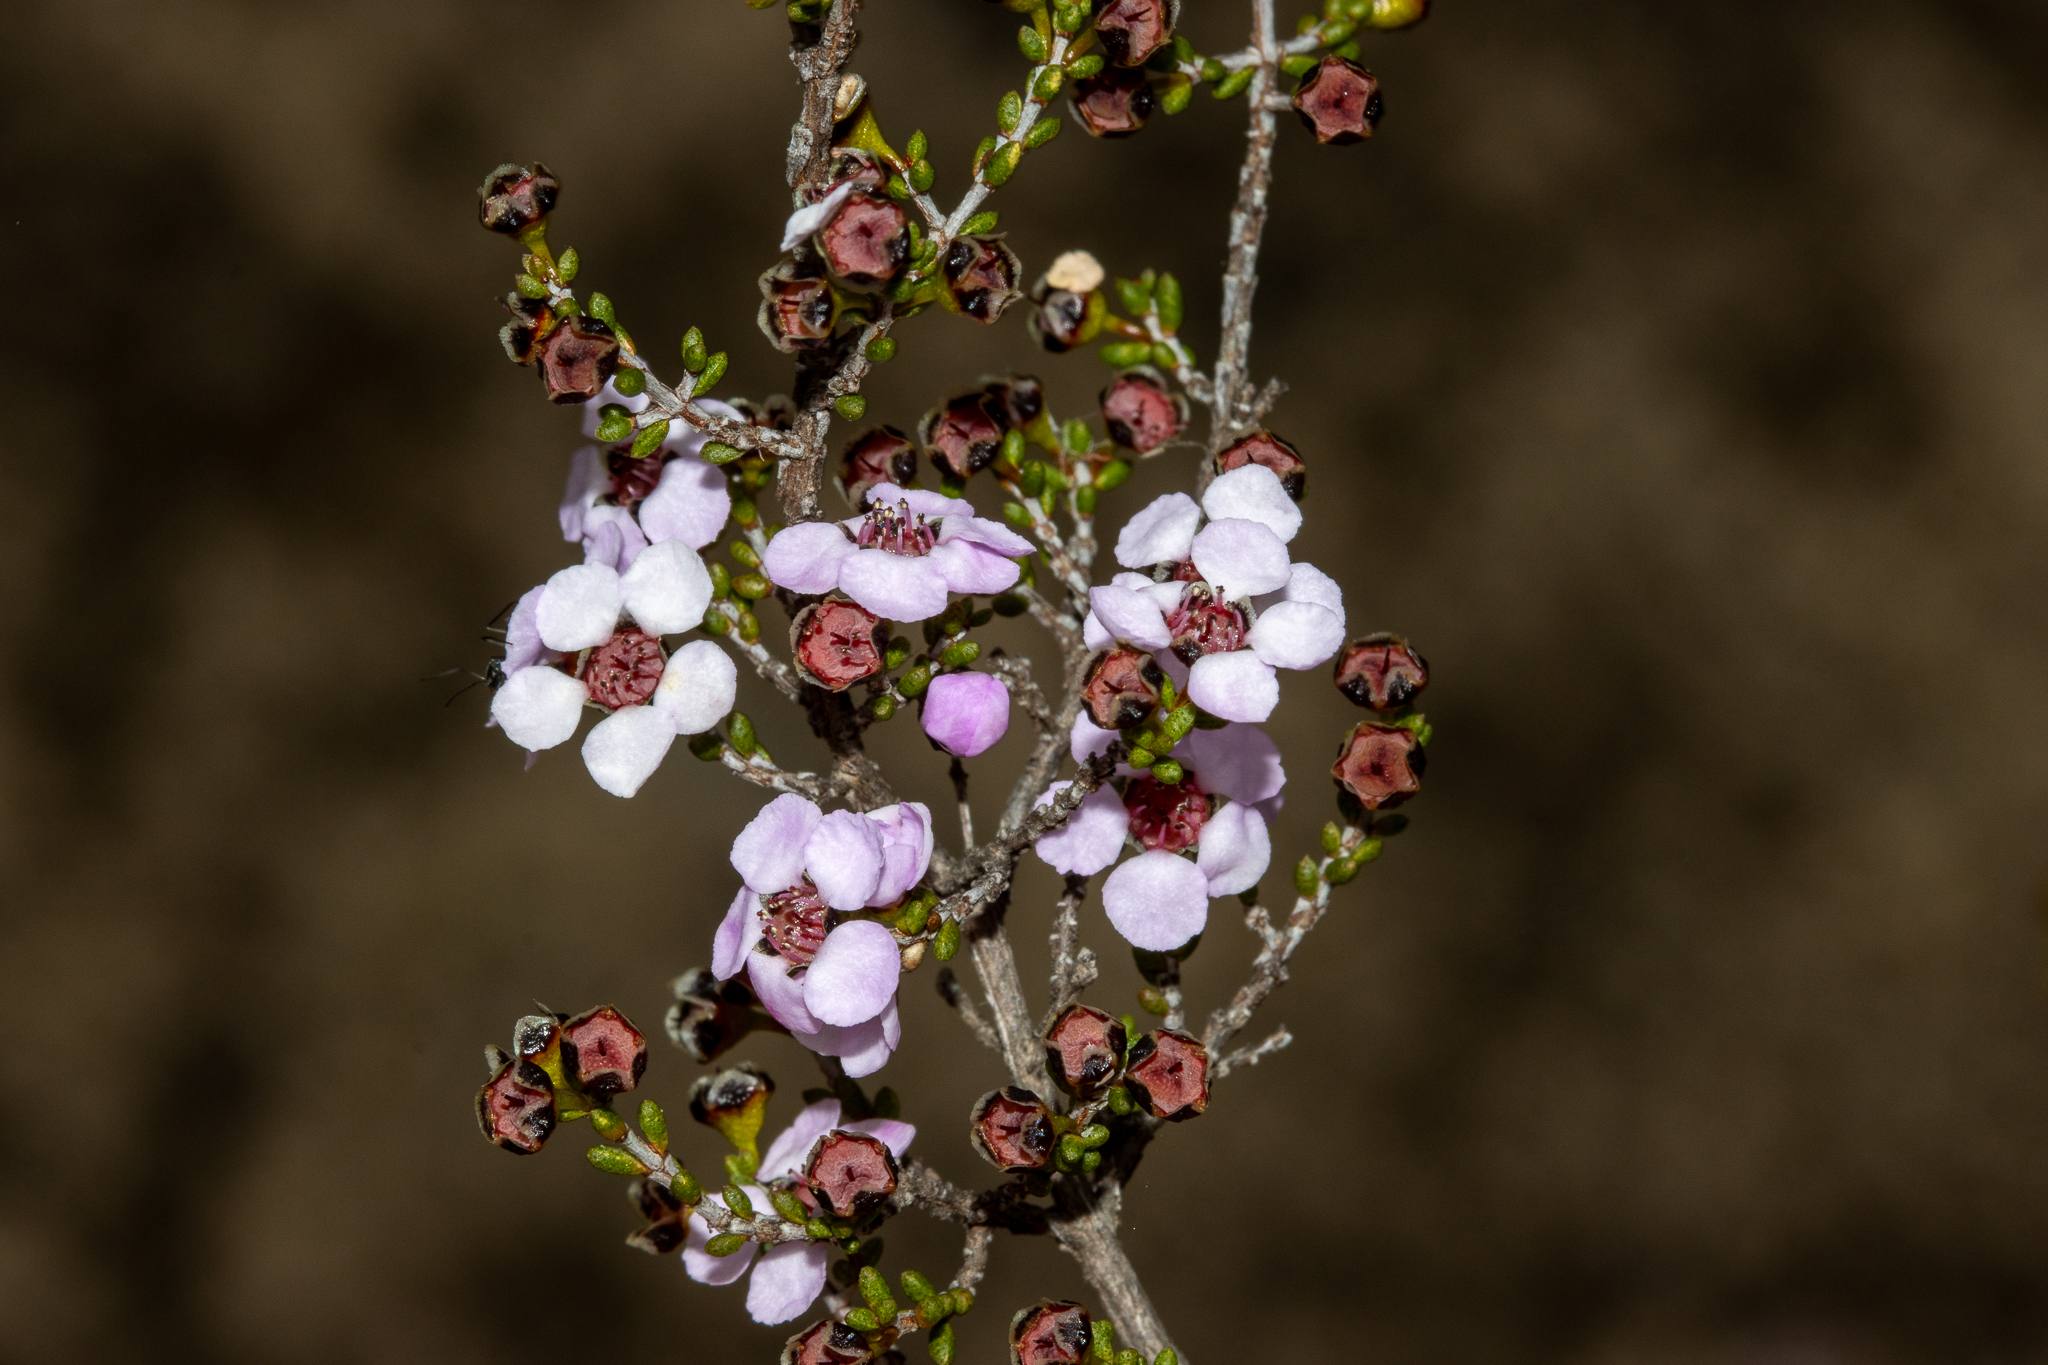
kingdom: Plantae
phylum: Tracheophyta
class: Magnoliopsida
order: Myrtales
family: Myrtaceae
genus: Rinzia
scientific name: Rinzia orientalis
